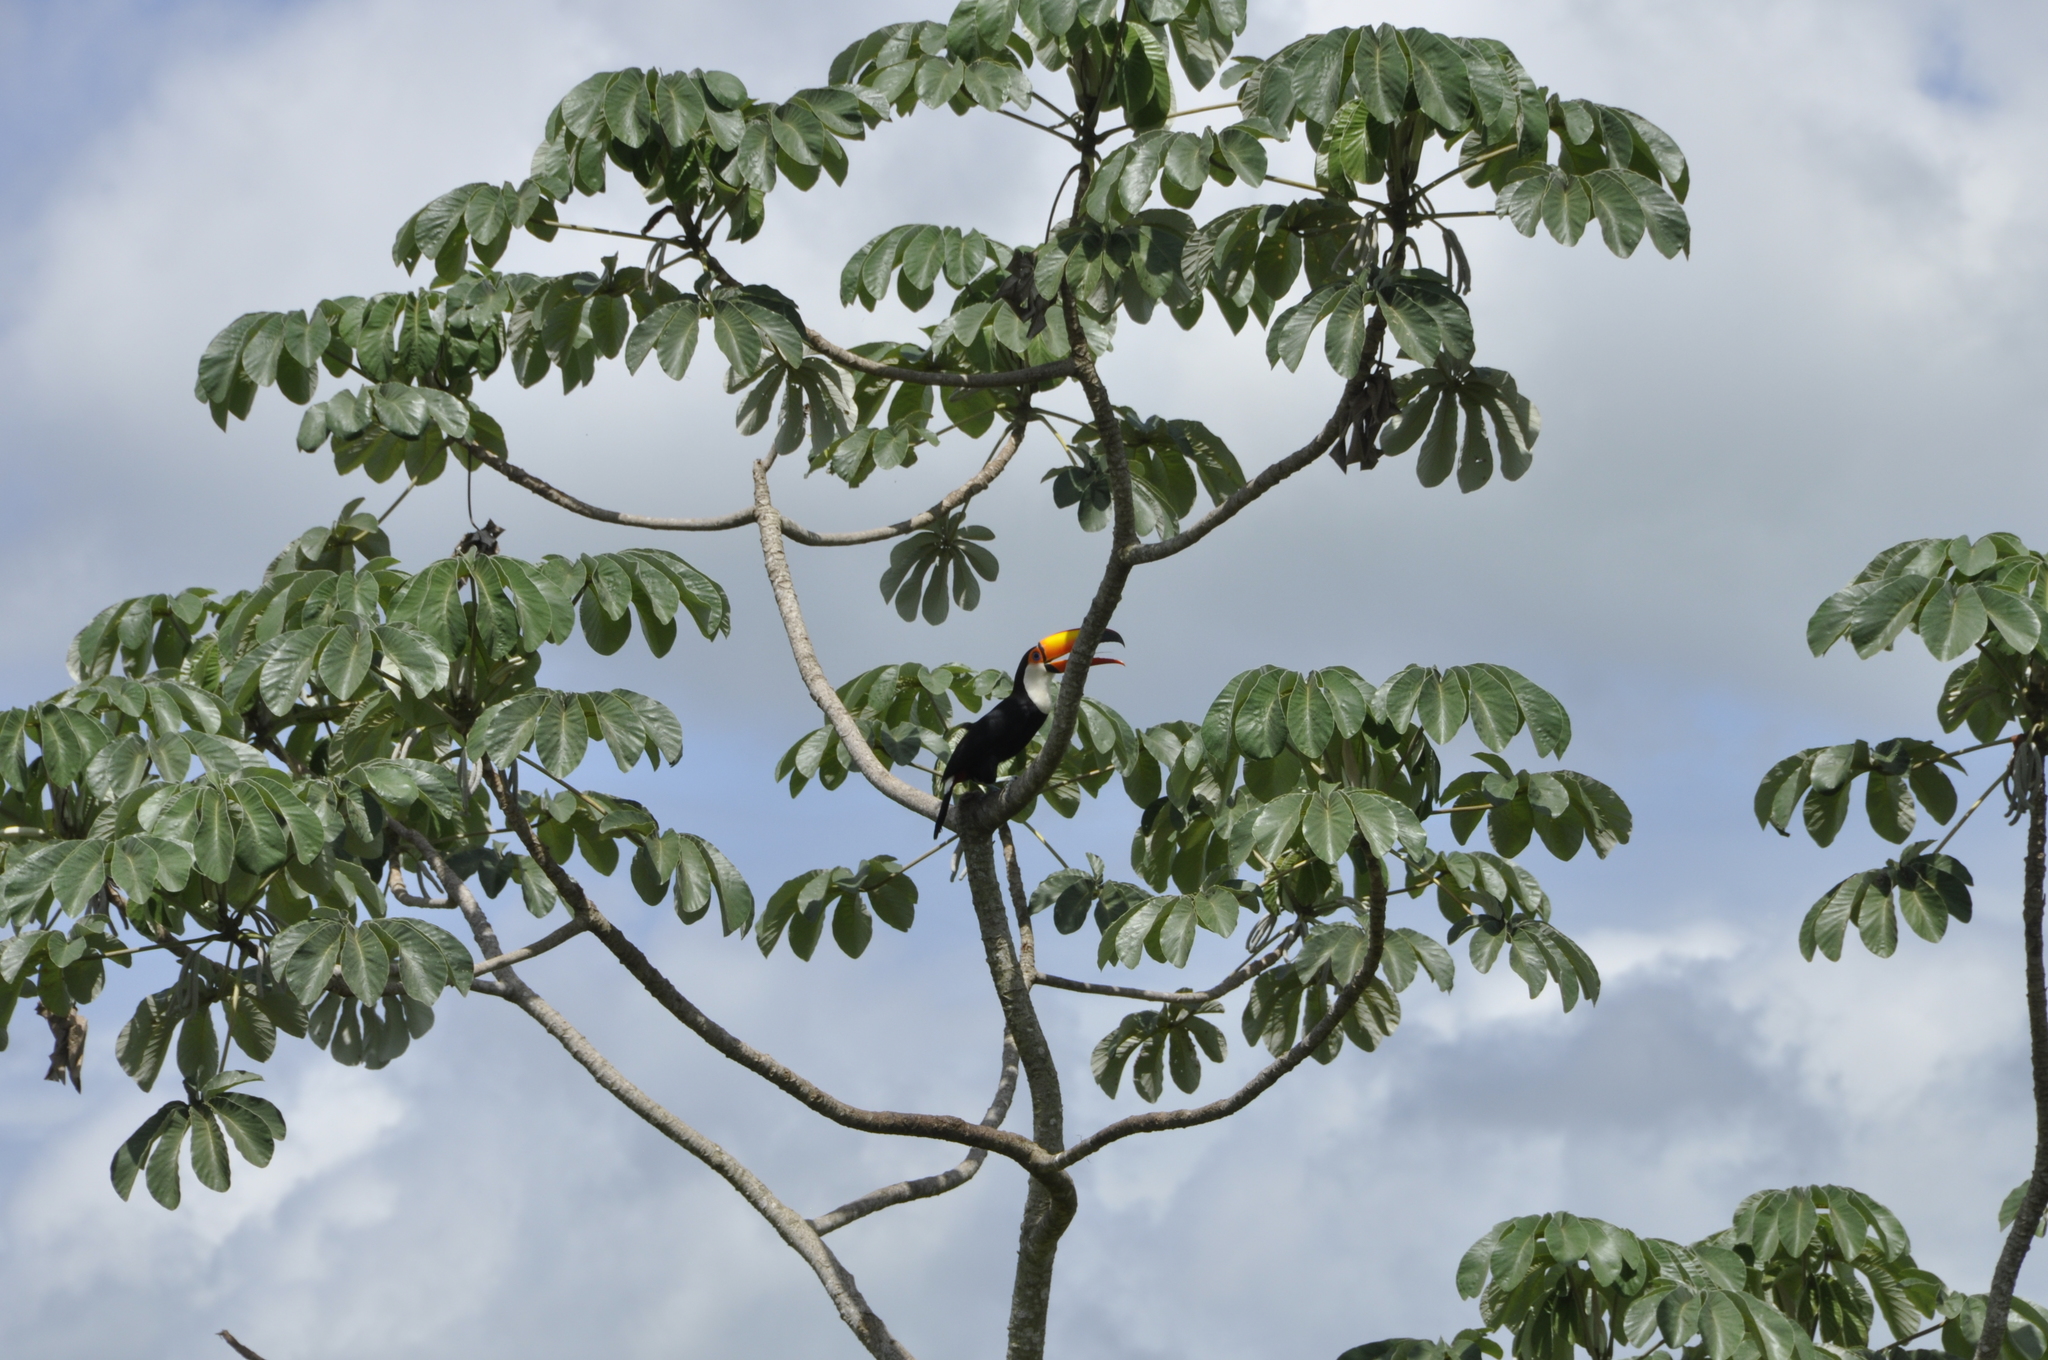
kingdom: Animalia
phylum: Chordata
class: Aves
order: Piciformes
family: Ramphastidae
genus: Ramphastos
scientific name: Ramphastos toco
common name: Toco toucan
